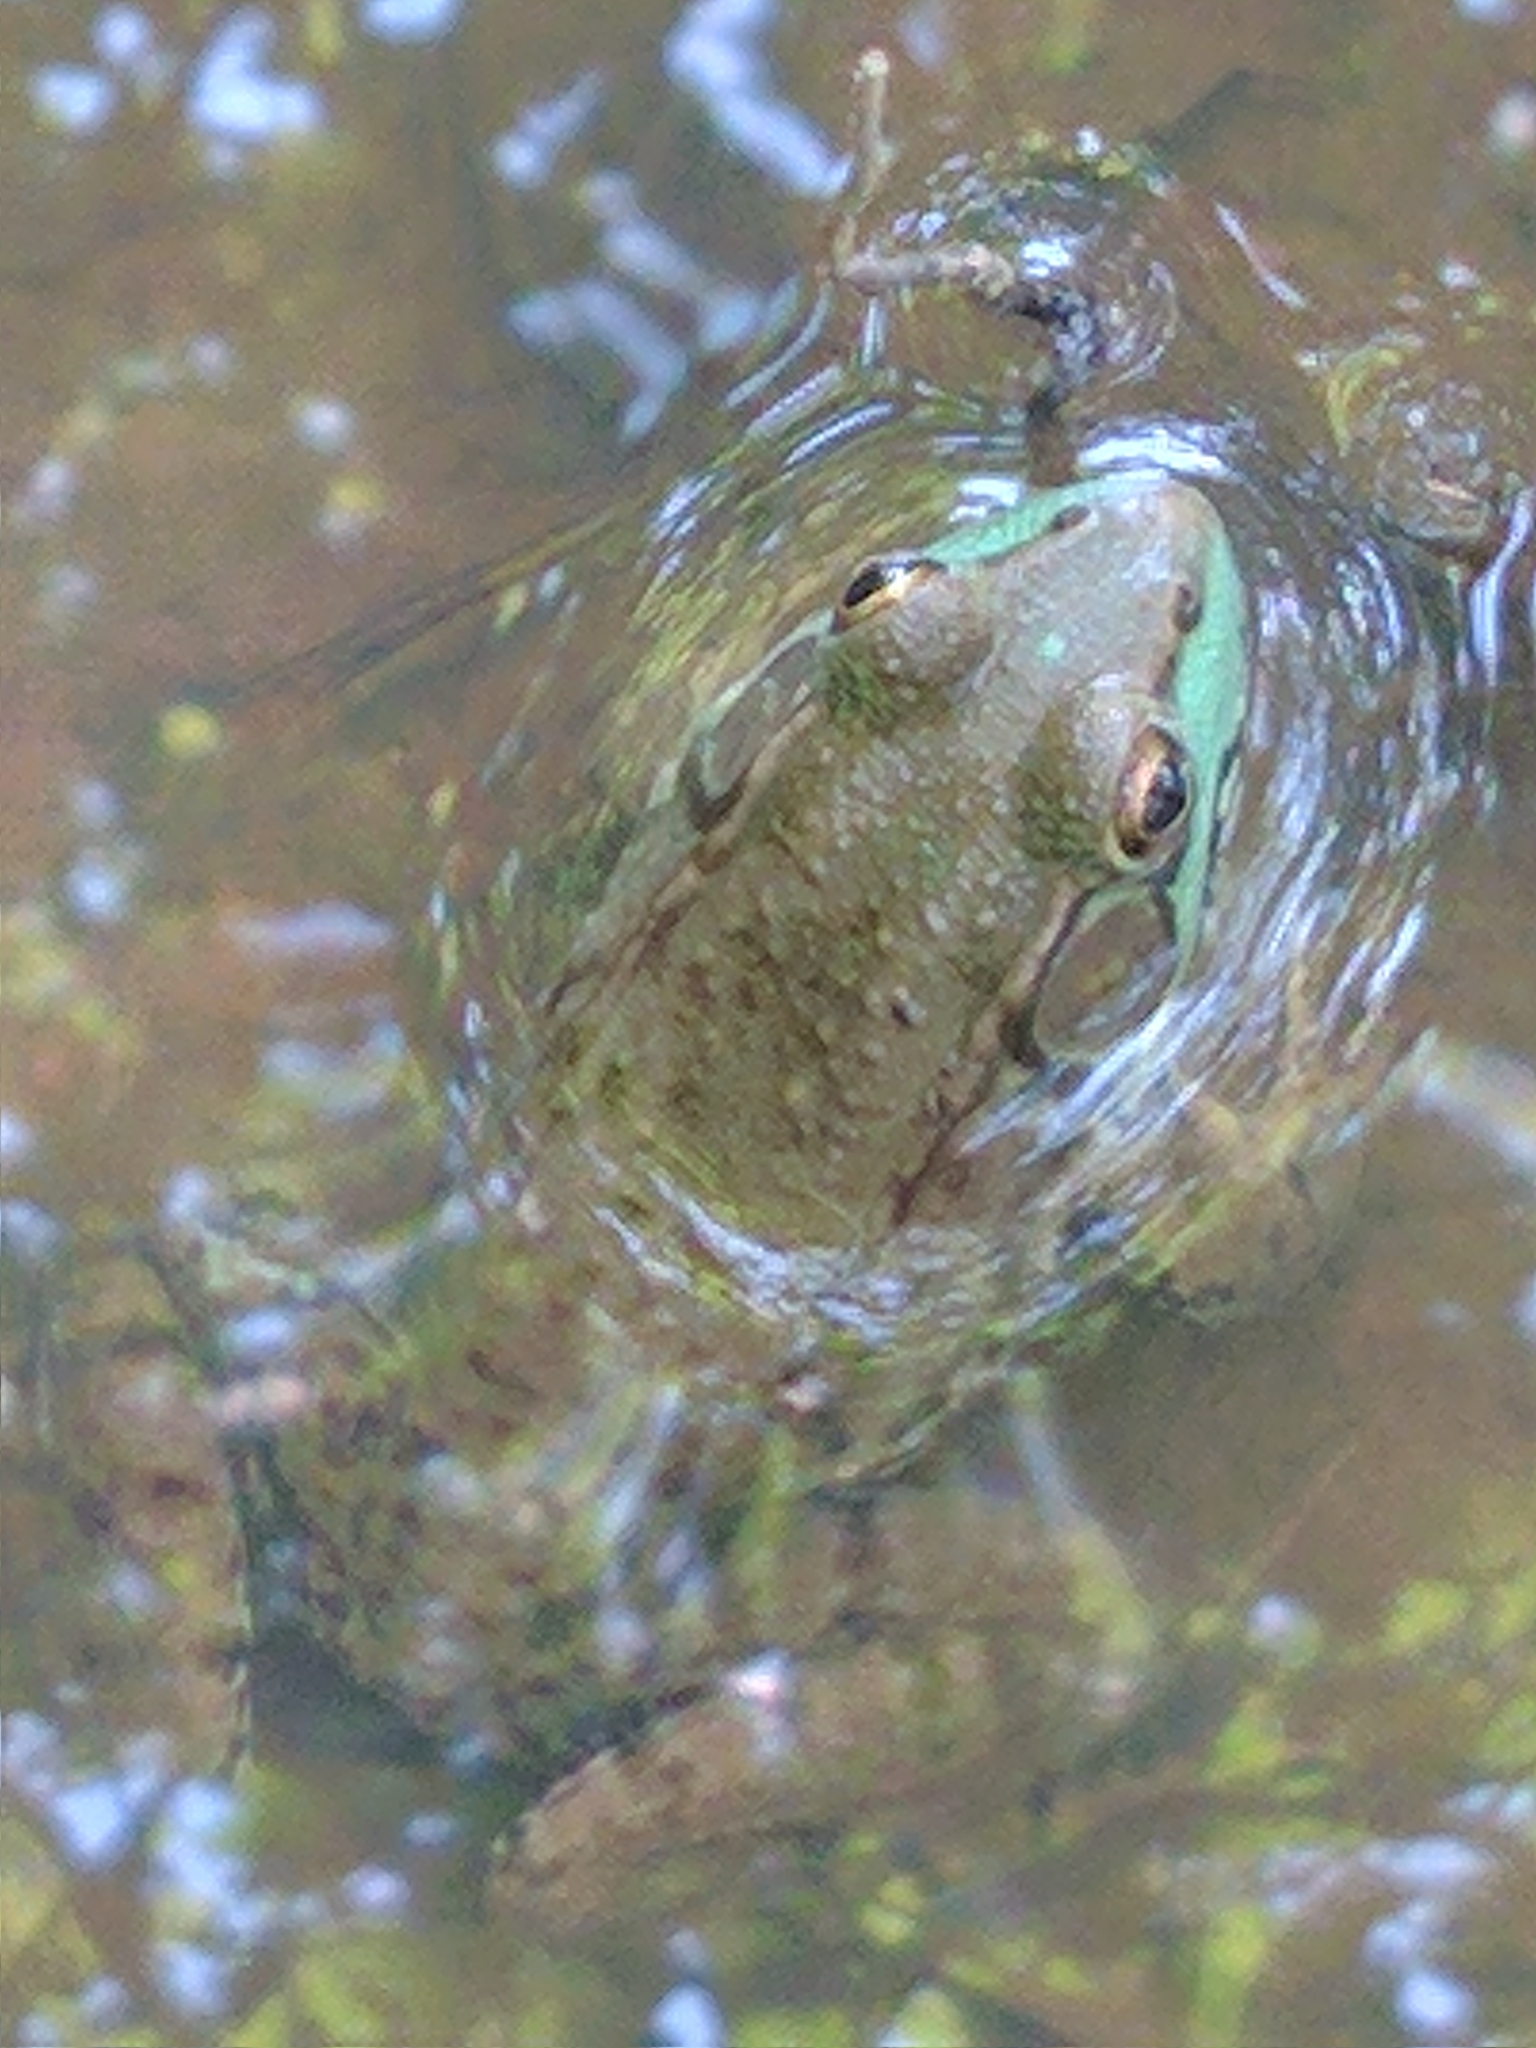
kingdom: Animalia
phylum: Chordata
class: Amphibia
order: Anura
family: Ranidae
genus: Lithobates
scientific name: Lithobates clamitans
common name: Green frog
